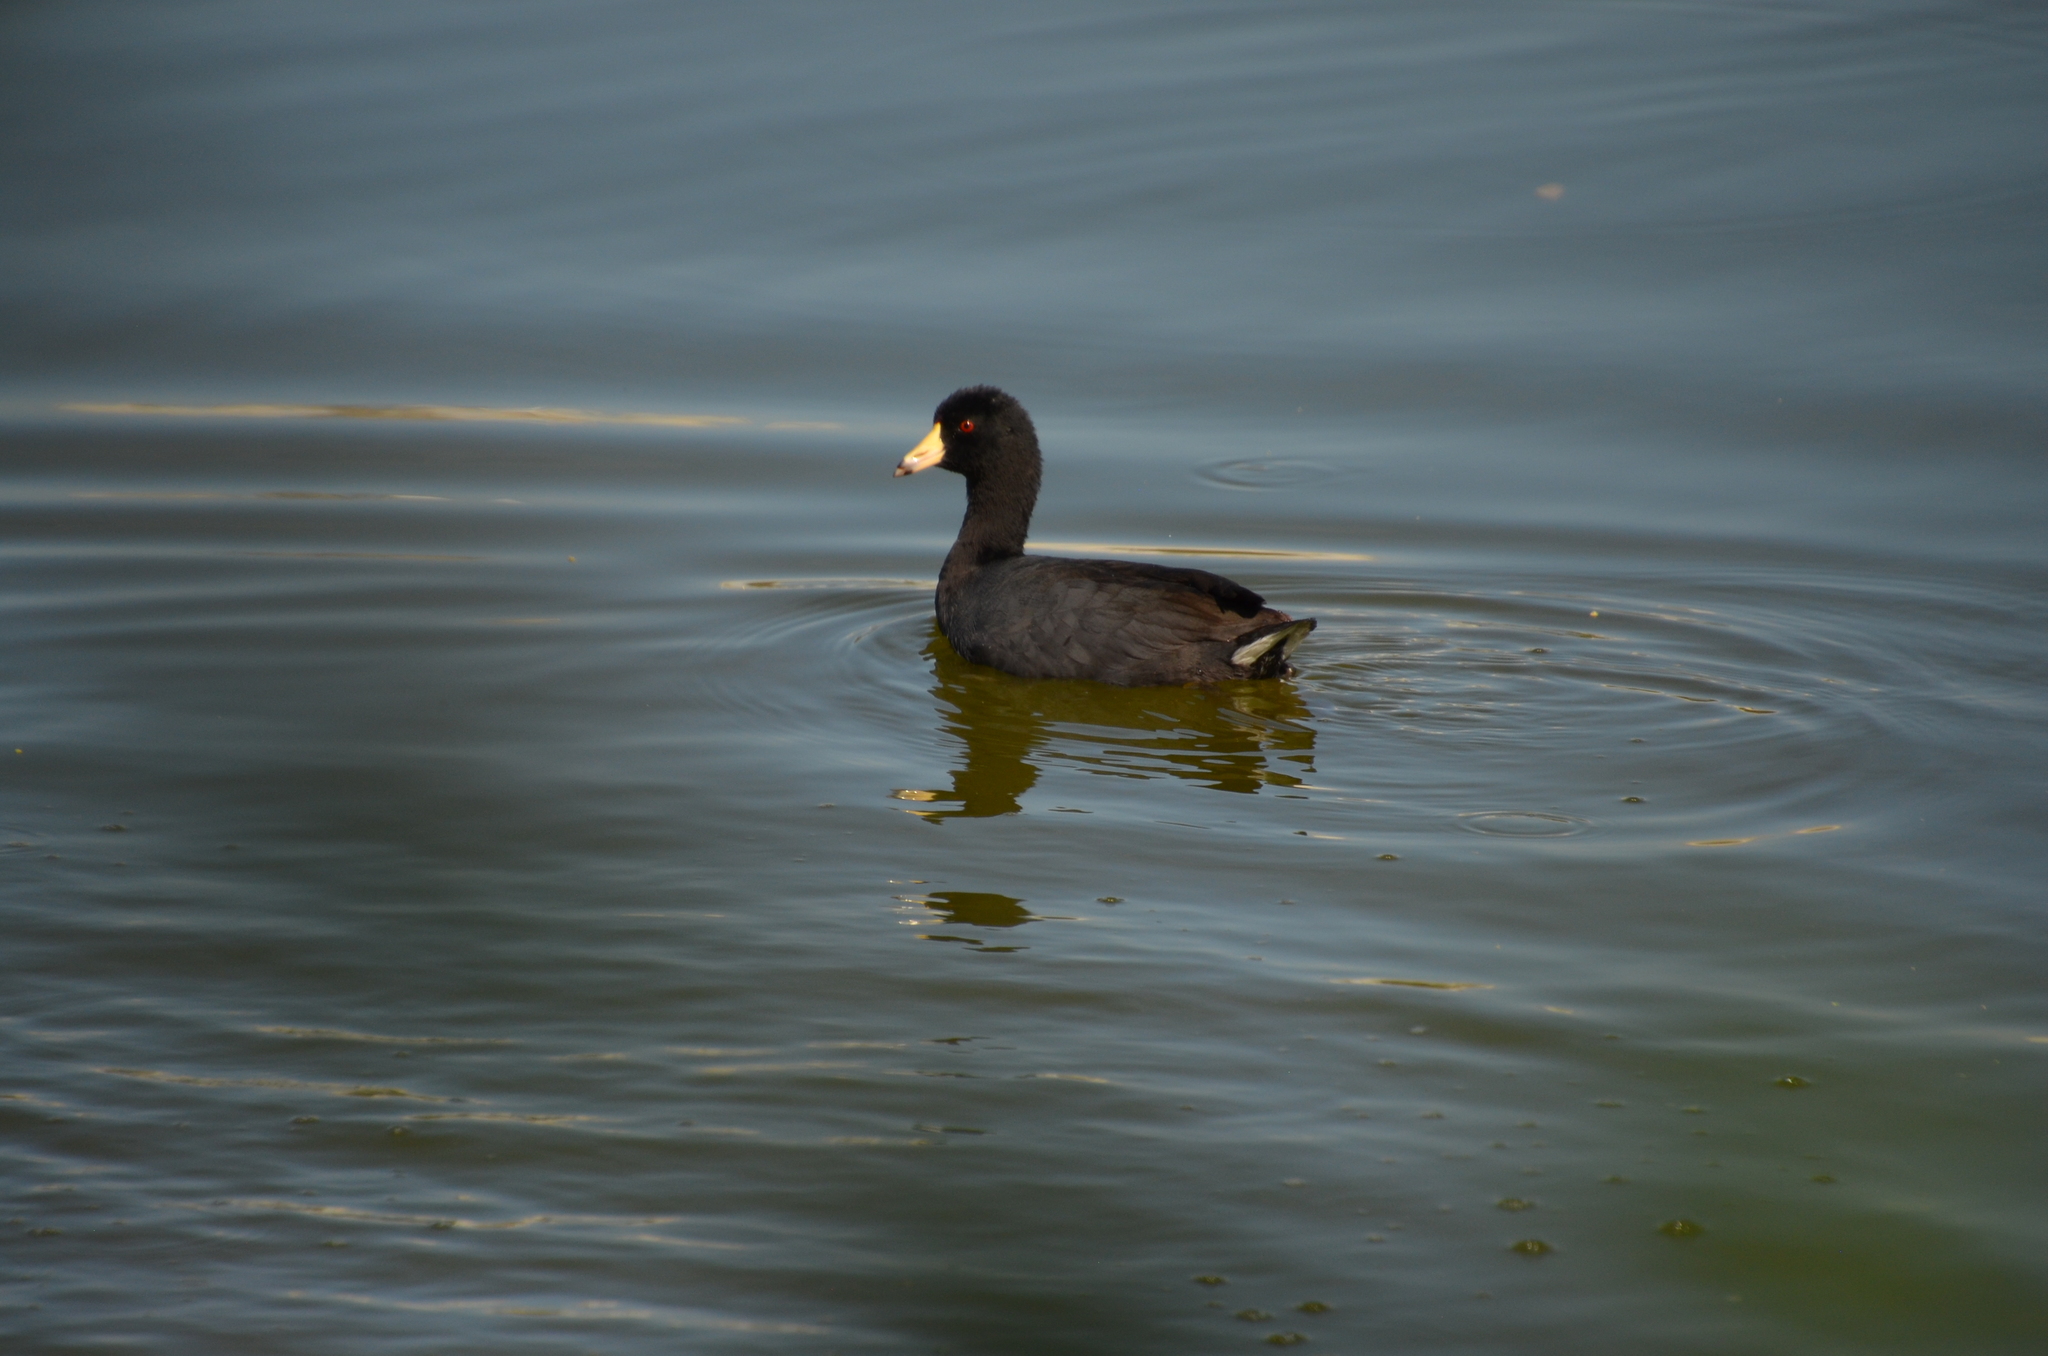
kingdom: Animalia
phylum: Chordata
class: Aves
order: Gruiformes
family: Rallidae
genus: Fulica
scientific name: Fulica americana
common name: American coot
